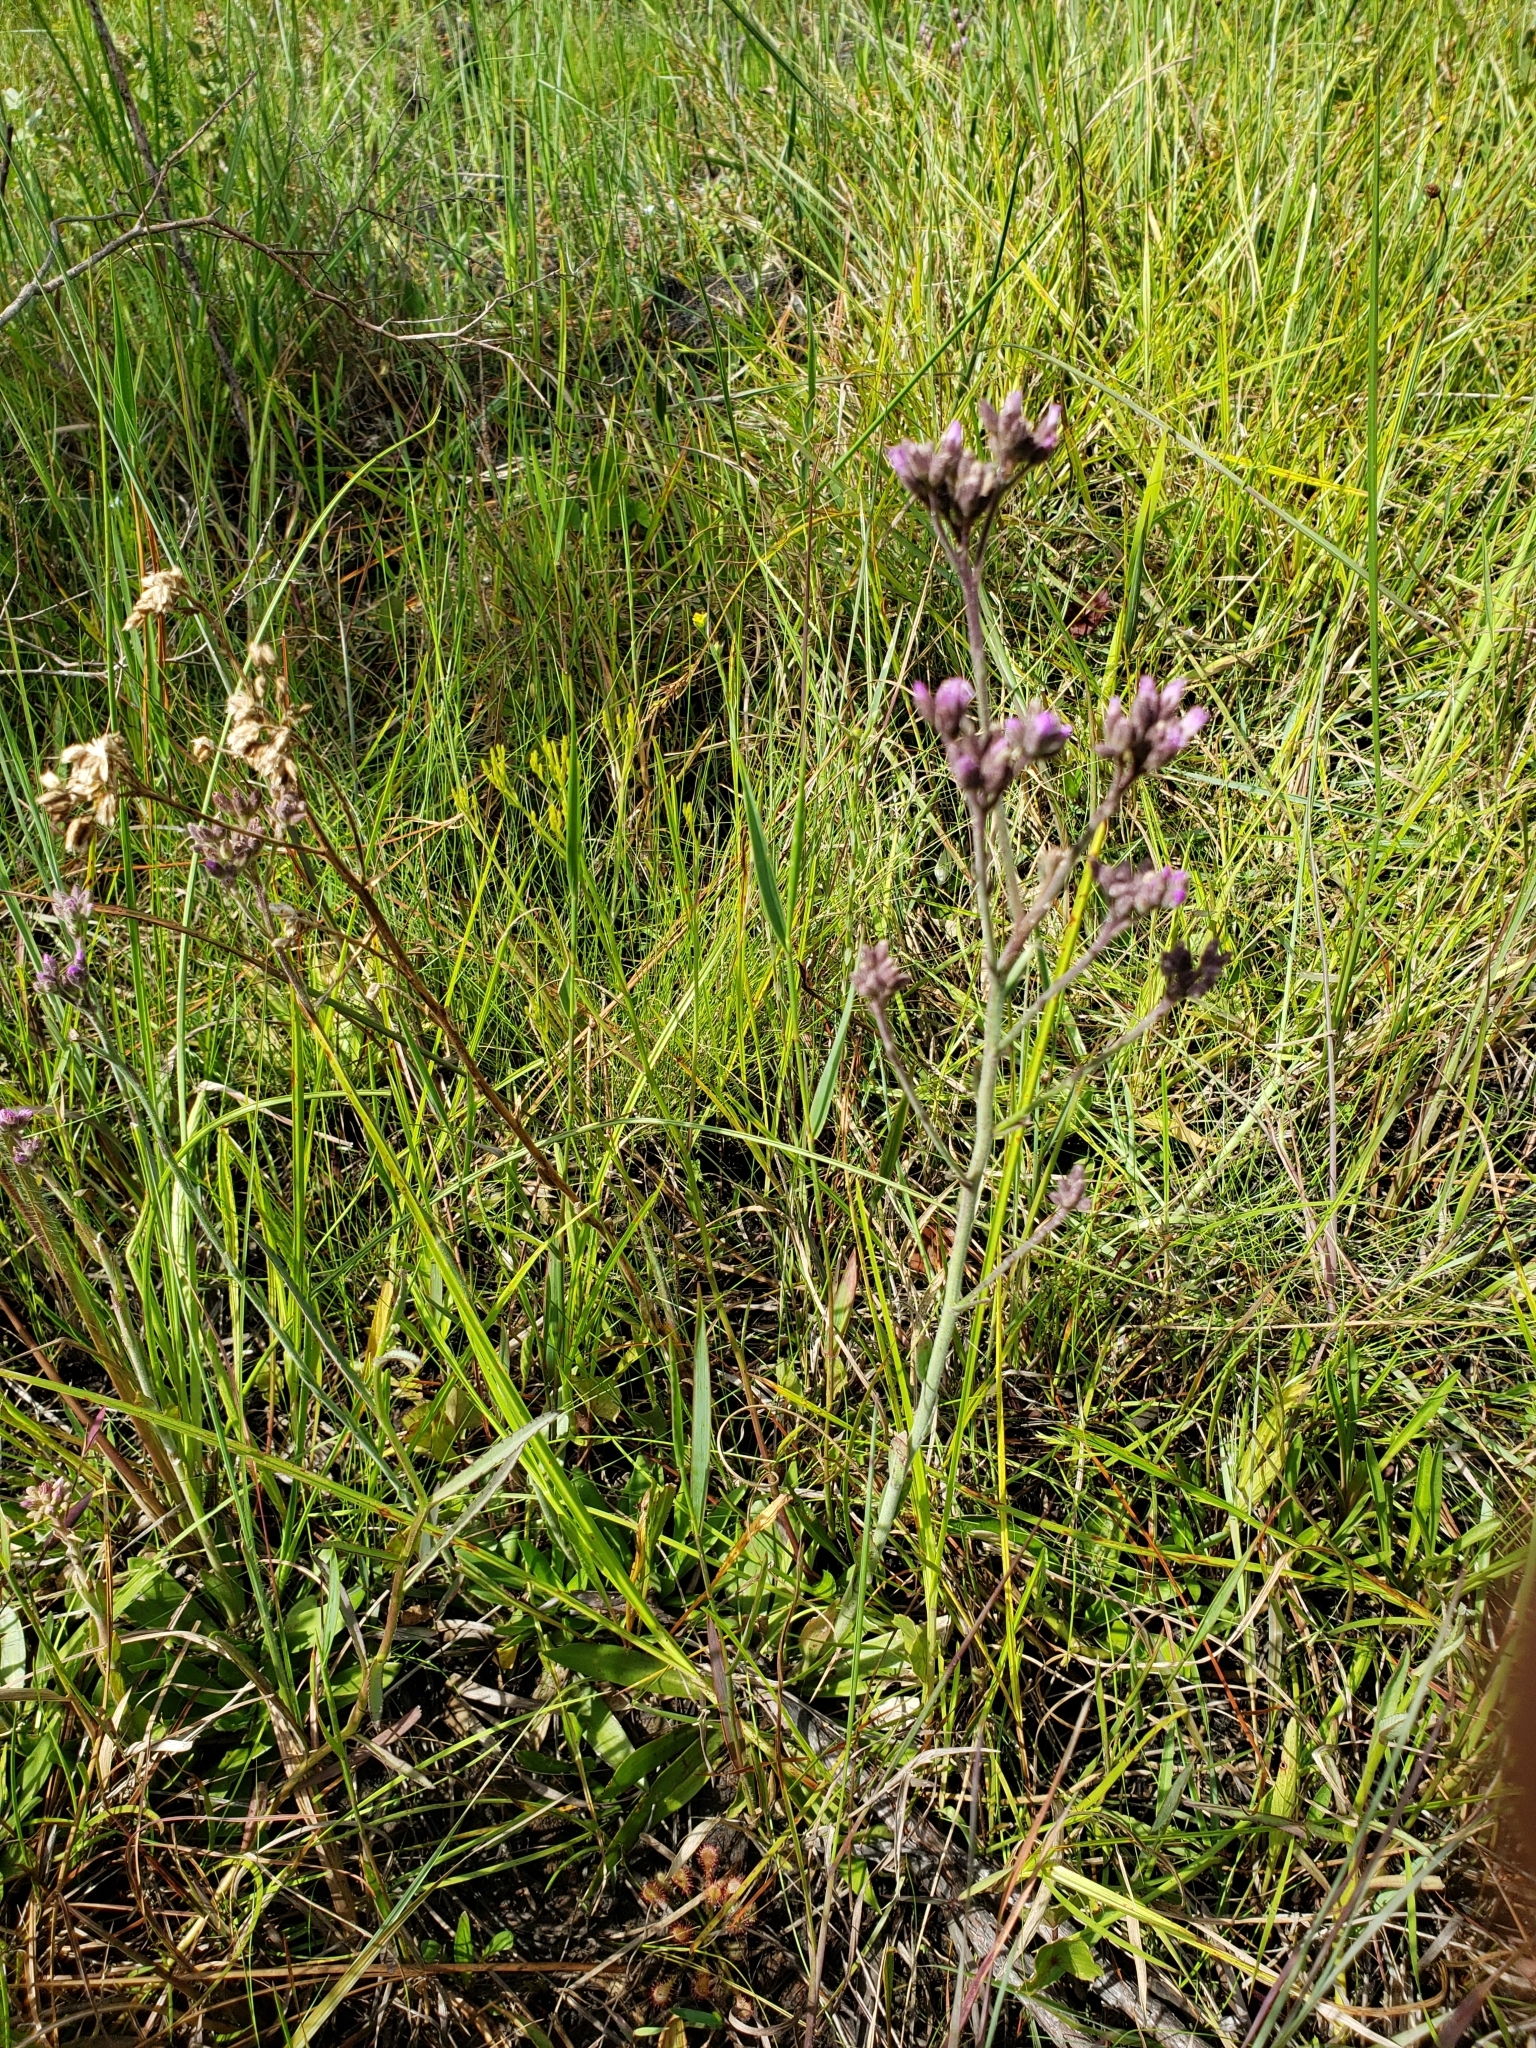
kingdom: Plantae
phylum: Tracheophyta
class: Magnoliopsida
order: Asterales
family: Asteraceae
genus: Carphephorus
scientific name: Carphephorus carnosus
